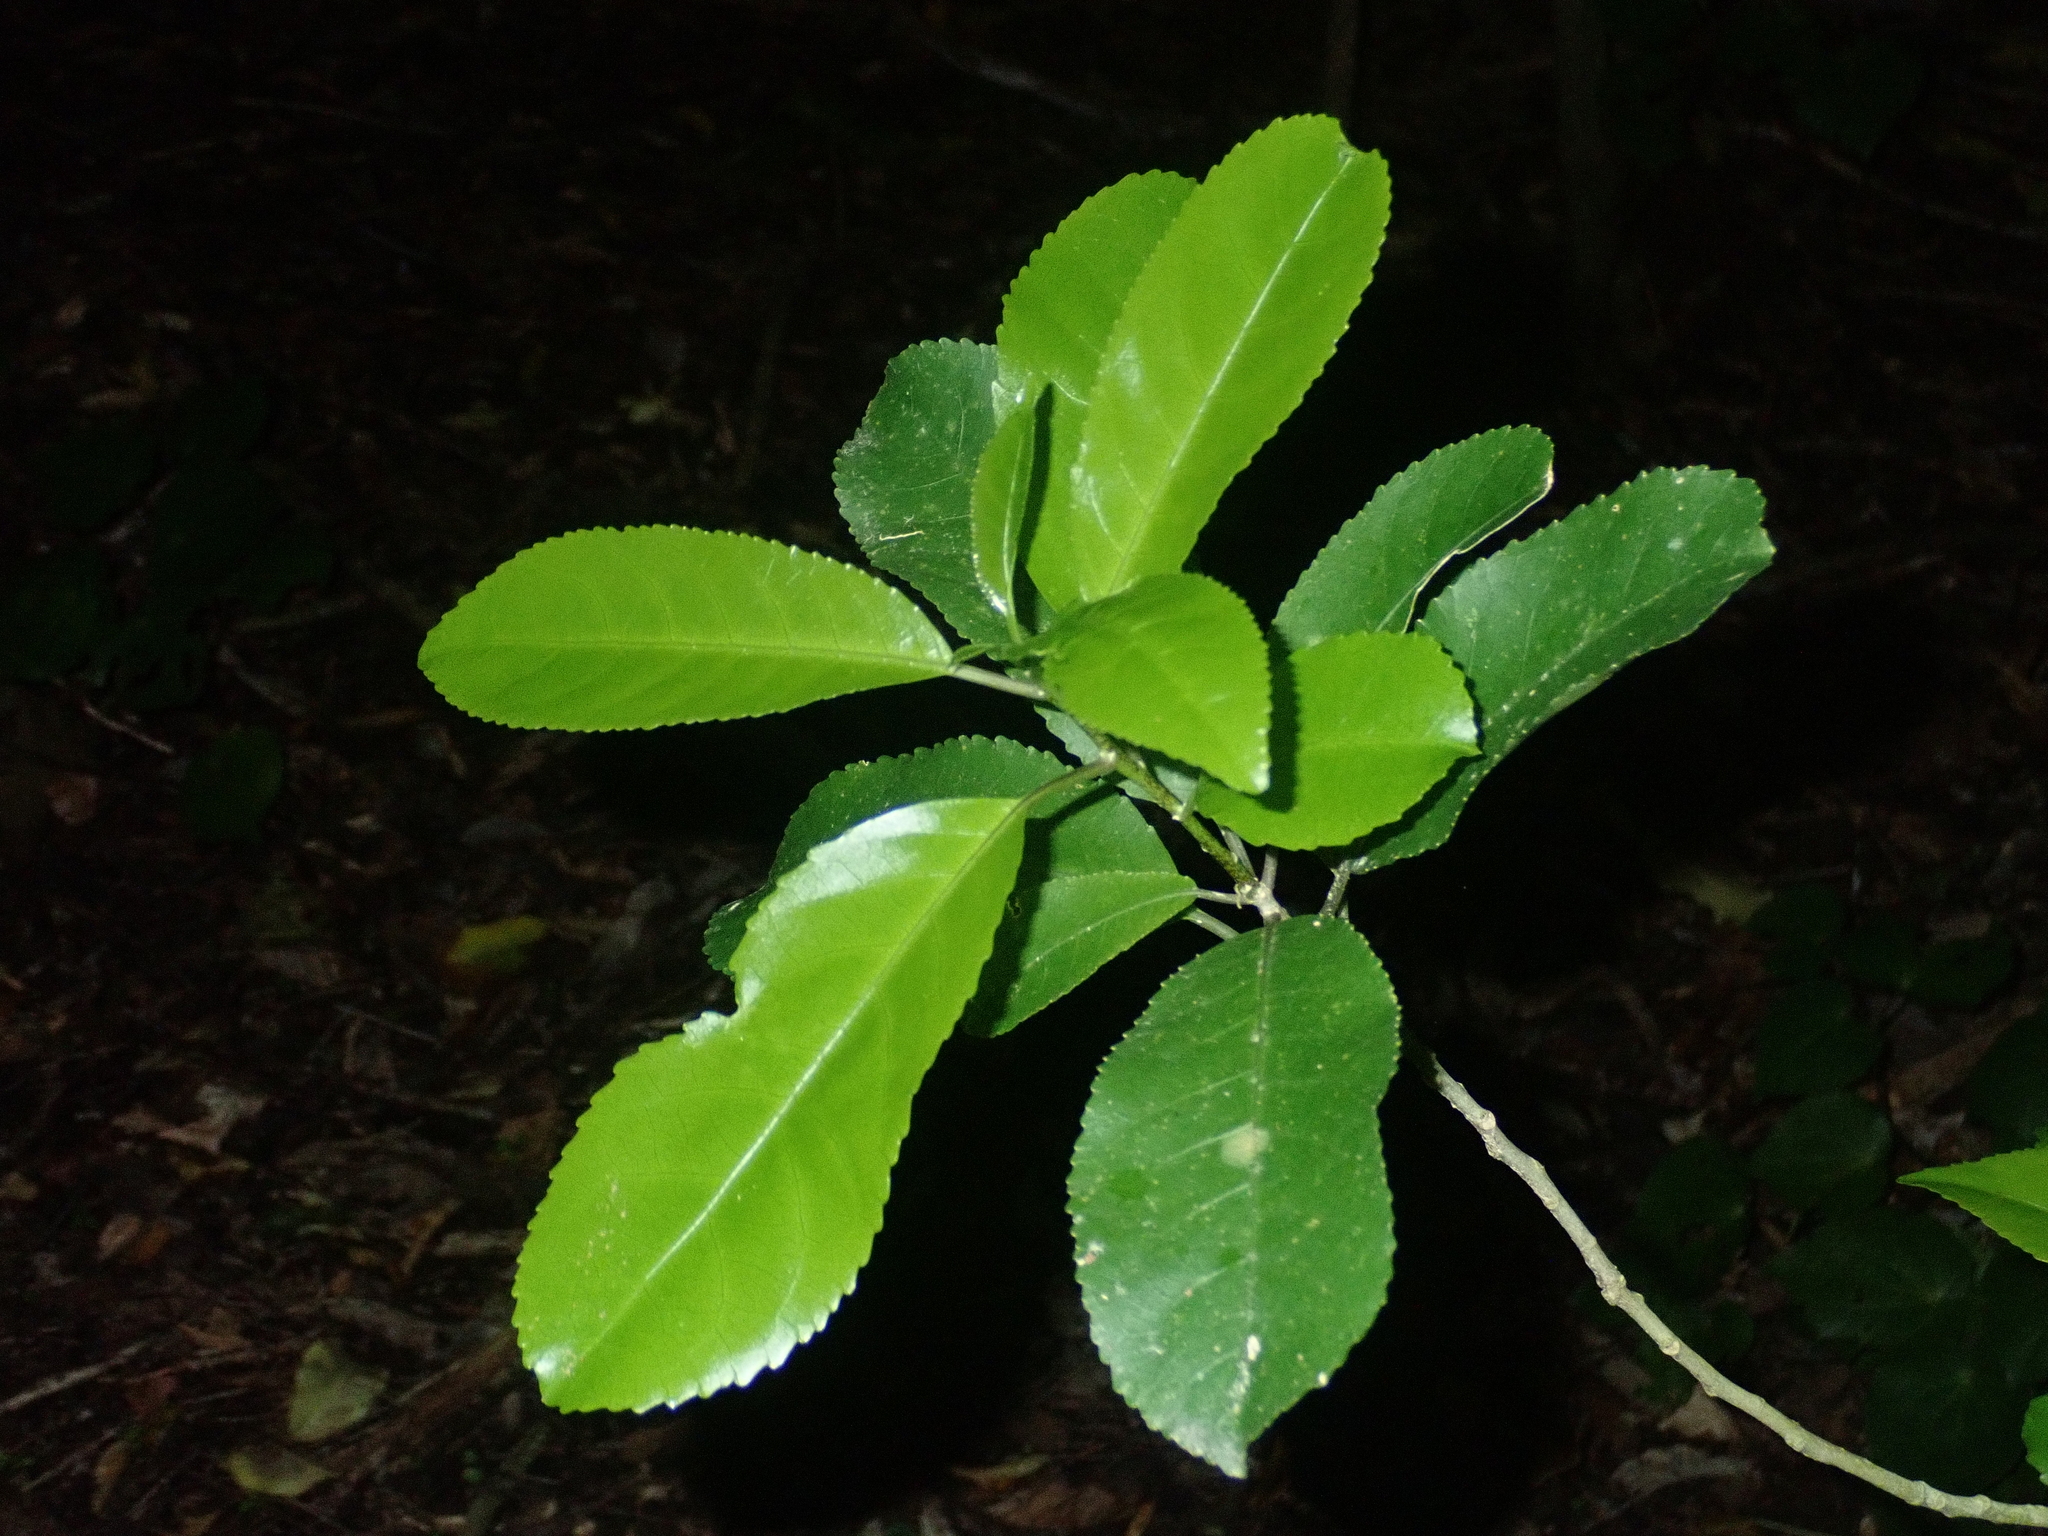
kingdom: Plantae
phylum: Tracheophyta
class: Magnoliopsida
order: Malpighiales
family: Violaceae
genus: Melicytus
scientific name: Melicytus ramiflorus
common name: Mahoe
